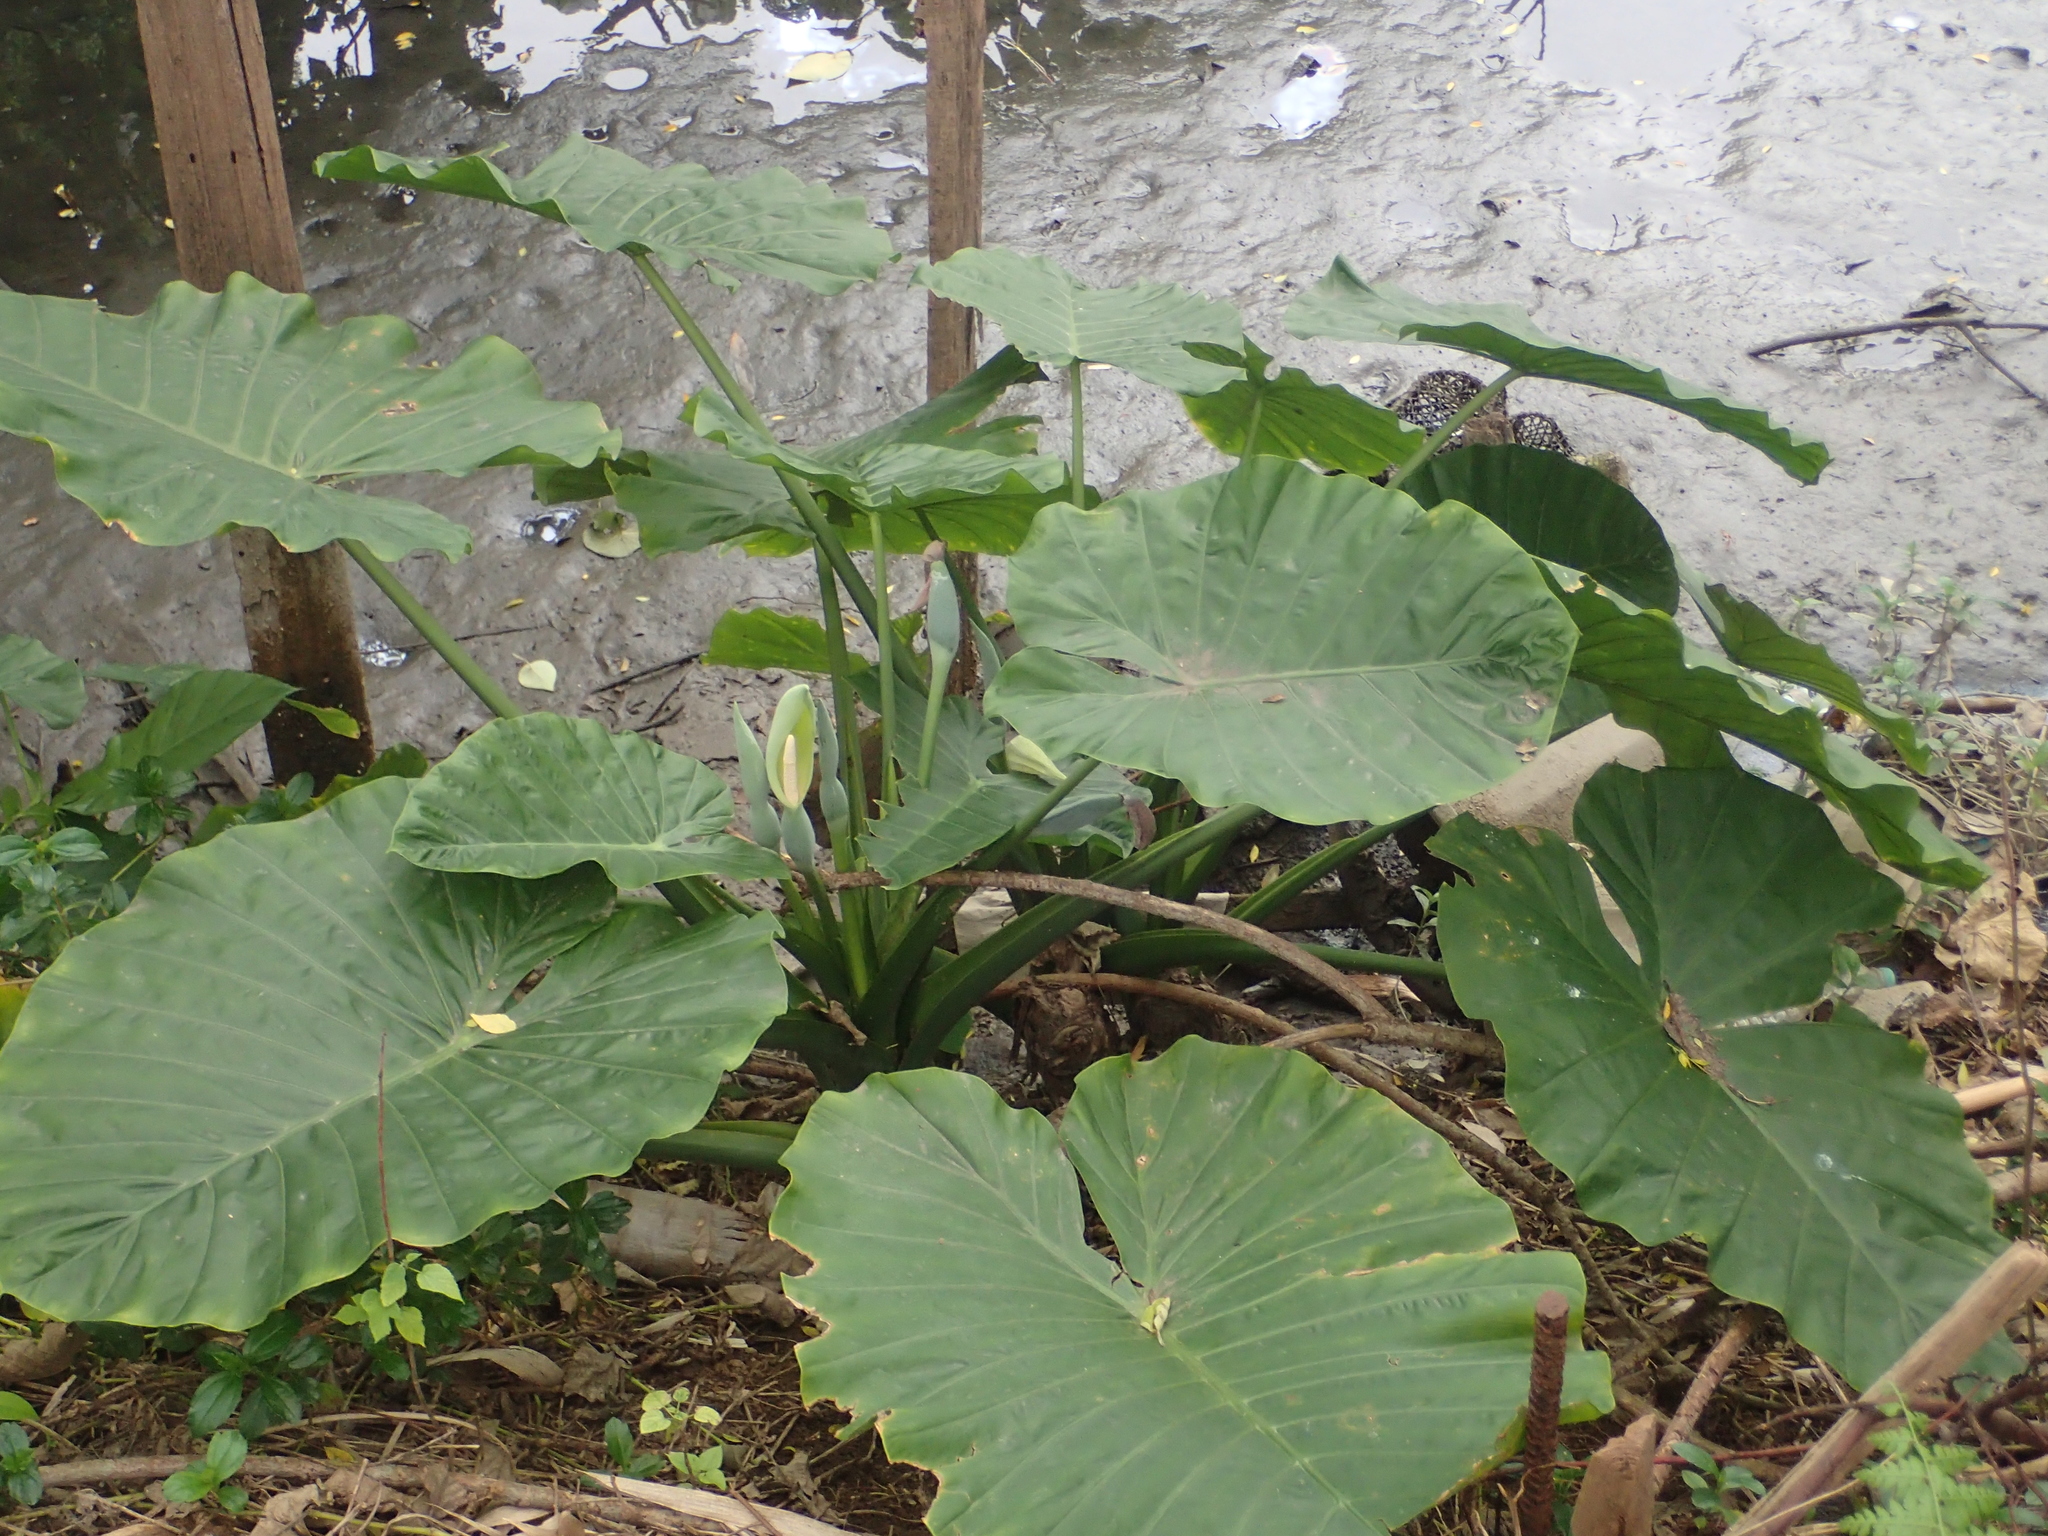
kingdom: Plantae
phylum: Tracheophyta
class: Liliopsida
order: Alismatales
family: Araceae
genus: Alocasia
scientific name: Alocasia odora
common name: Asian taro
